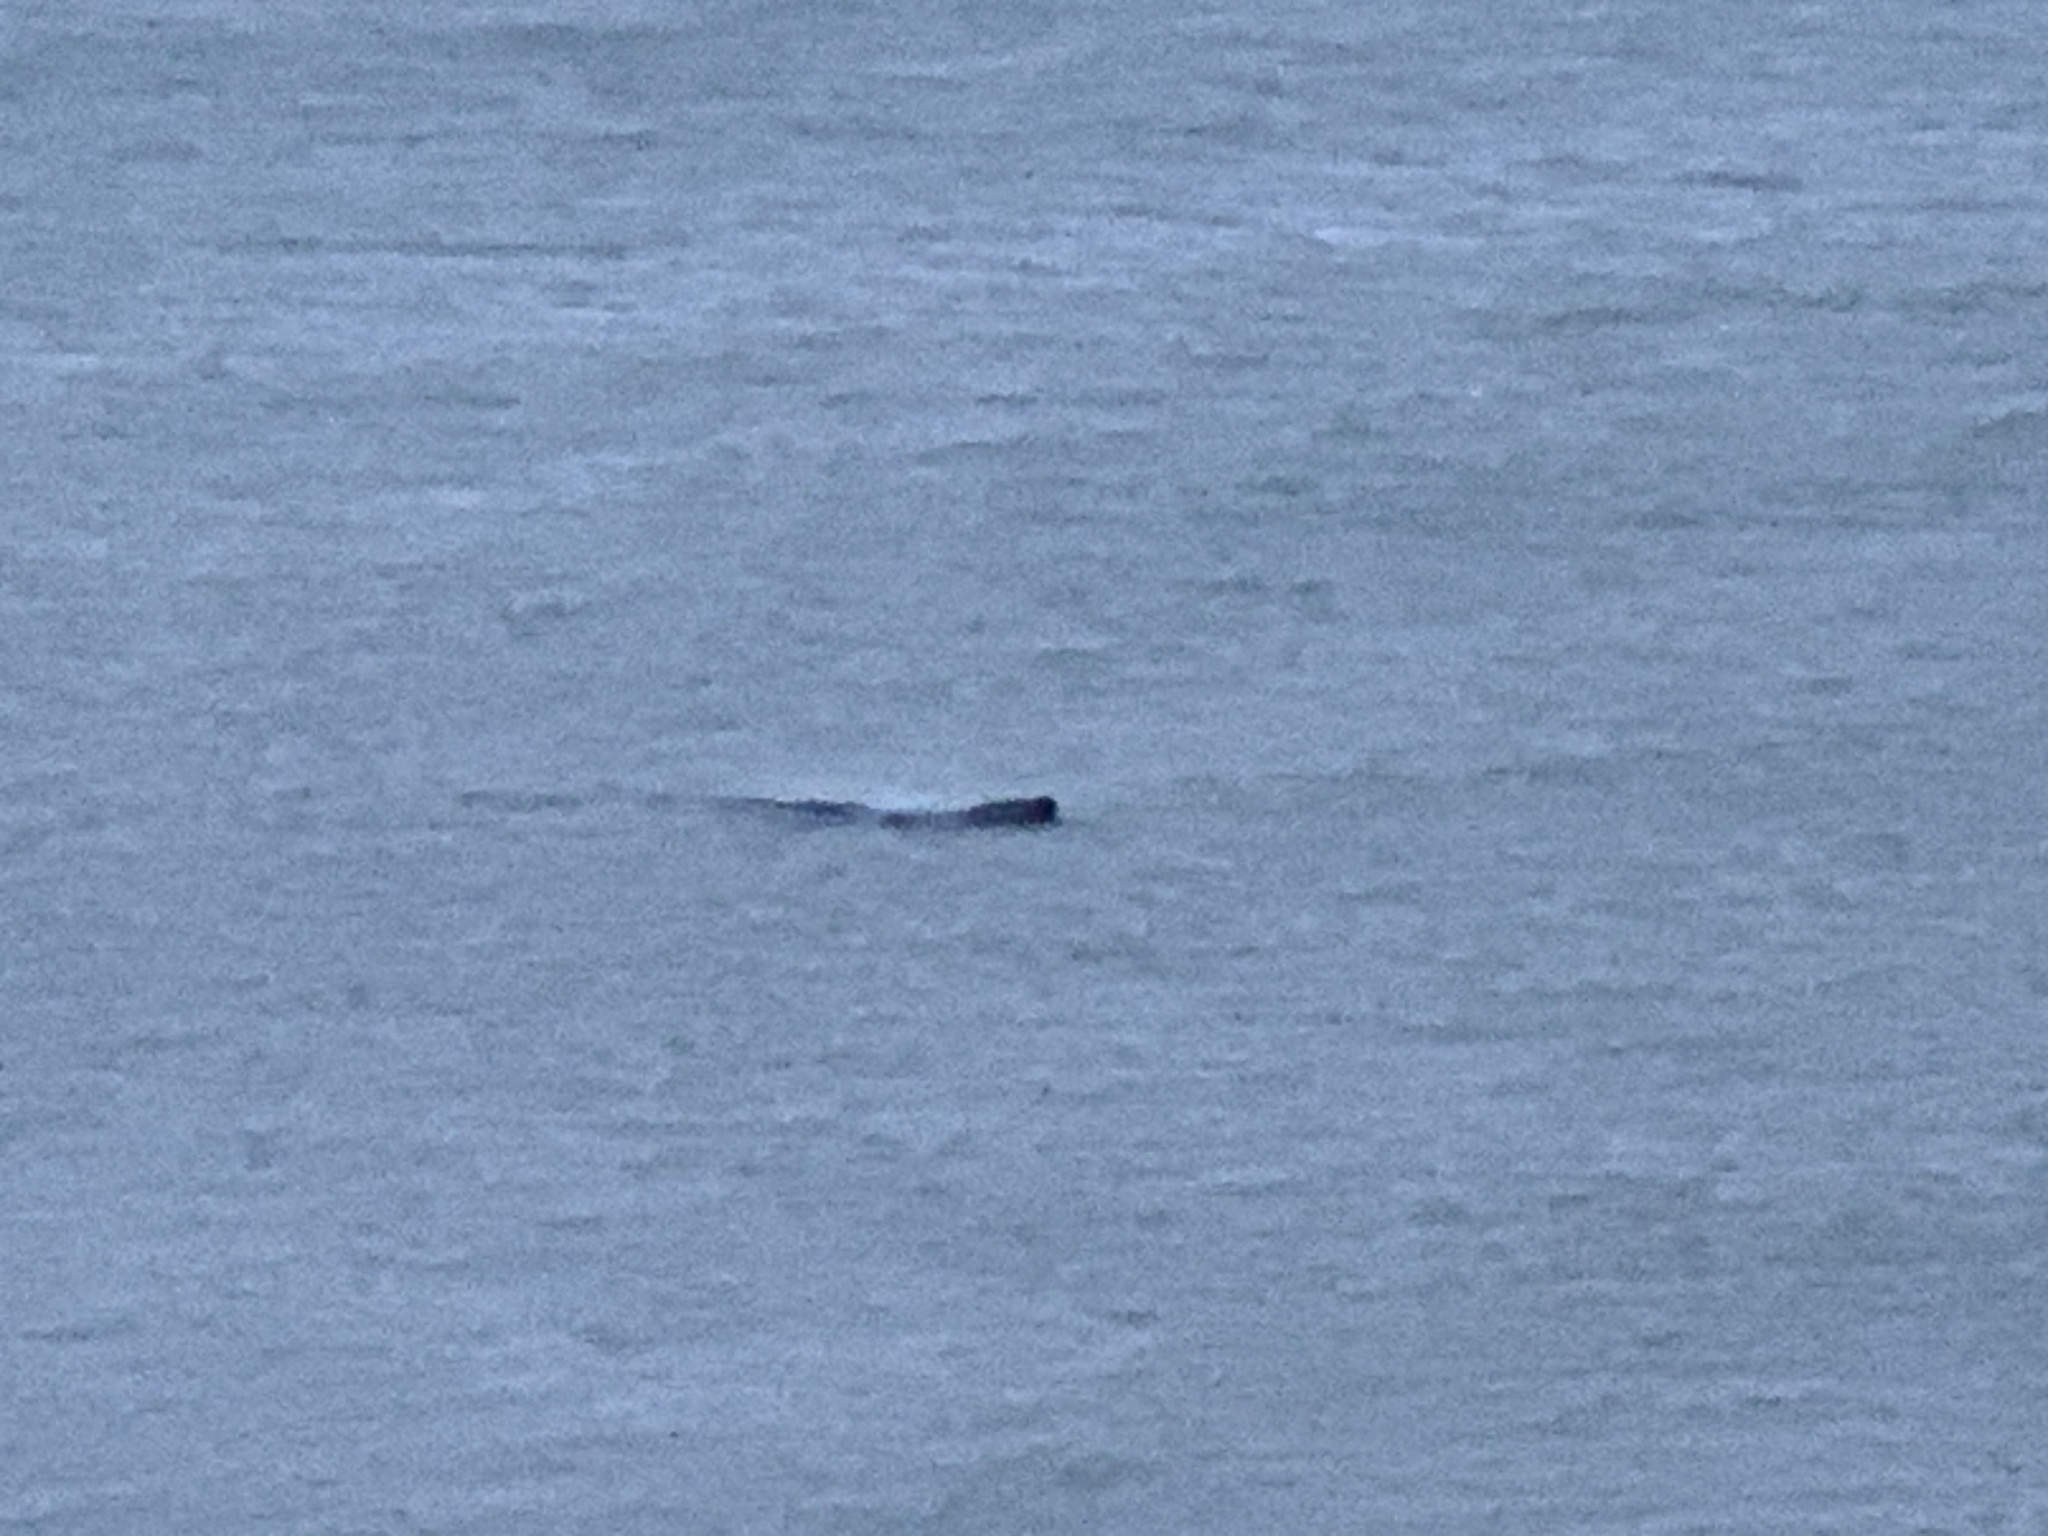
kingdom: Animalia
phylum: Chordata
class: Mammalia
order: Carnivora
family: Phocidae
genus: Phoca
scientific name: Phoca vitulina
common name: Harbor seal
